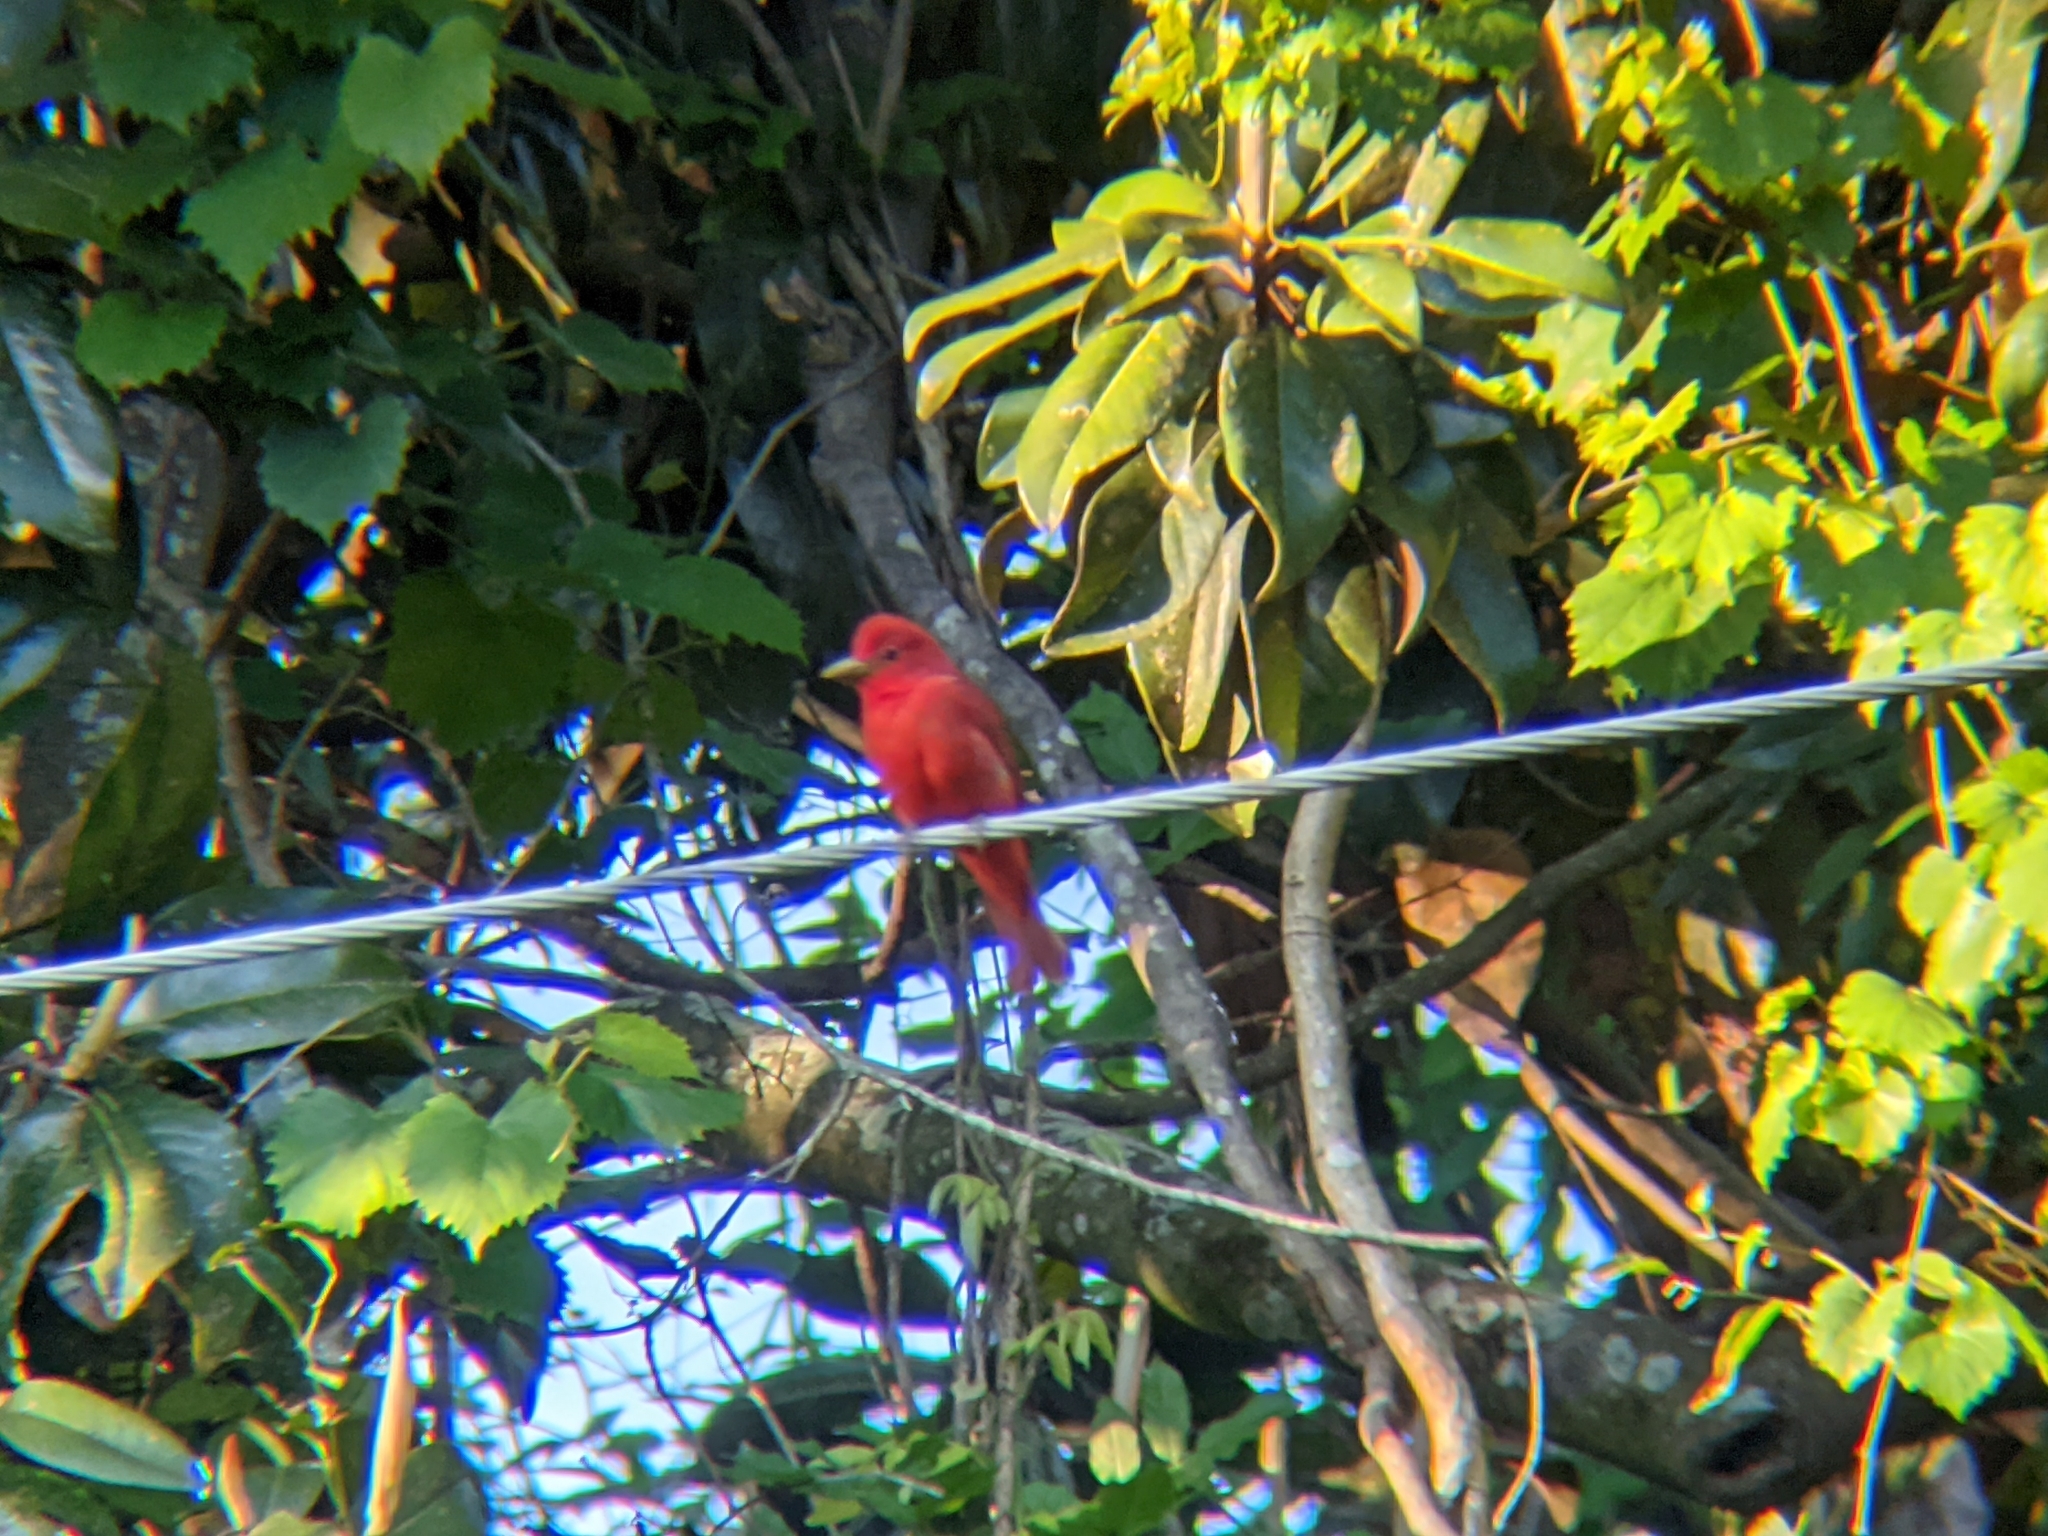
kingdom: Animalia
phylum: Chordata
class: Aves
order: Passeriformes
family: Cardinalidae
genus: Piranga
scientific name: Piranga rubra
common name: Summer tanager
